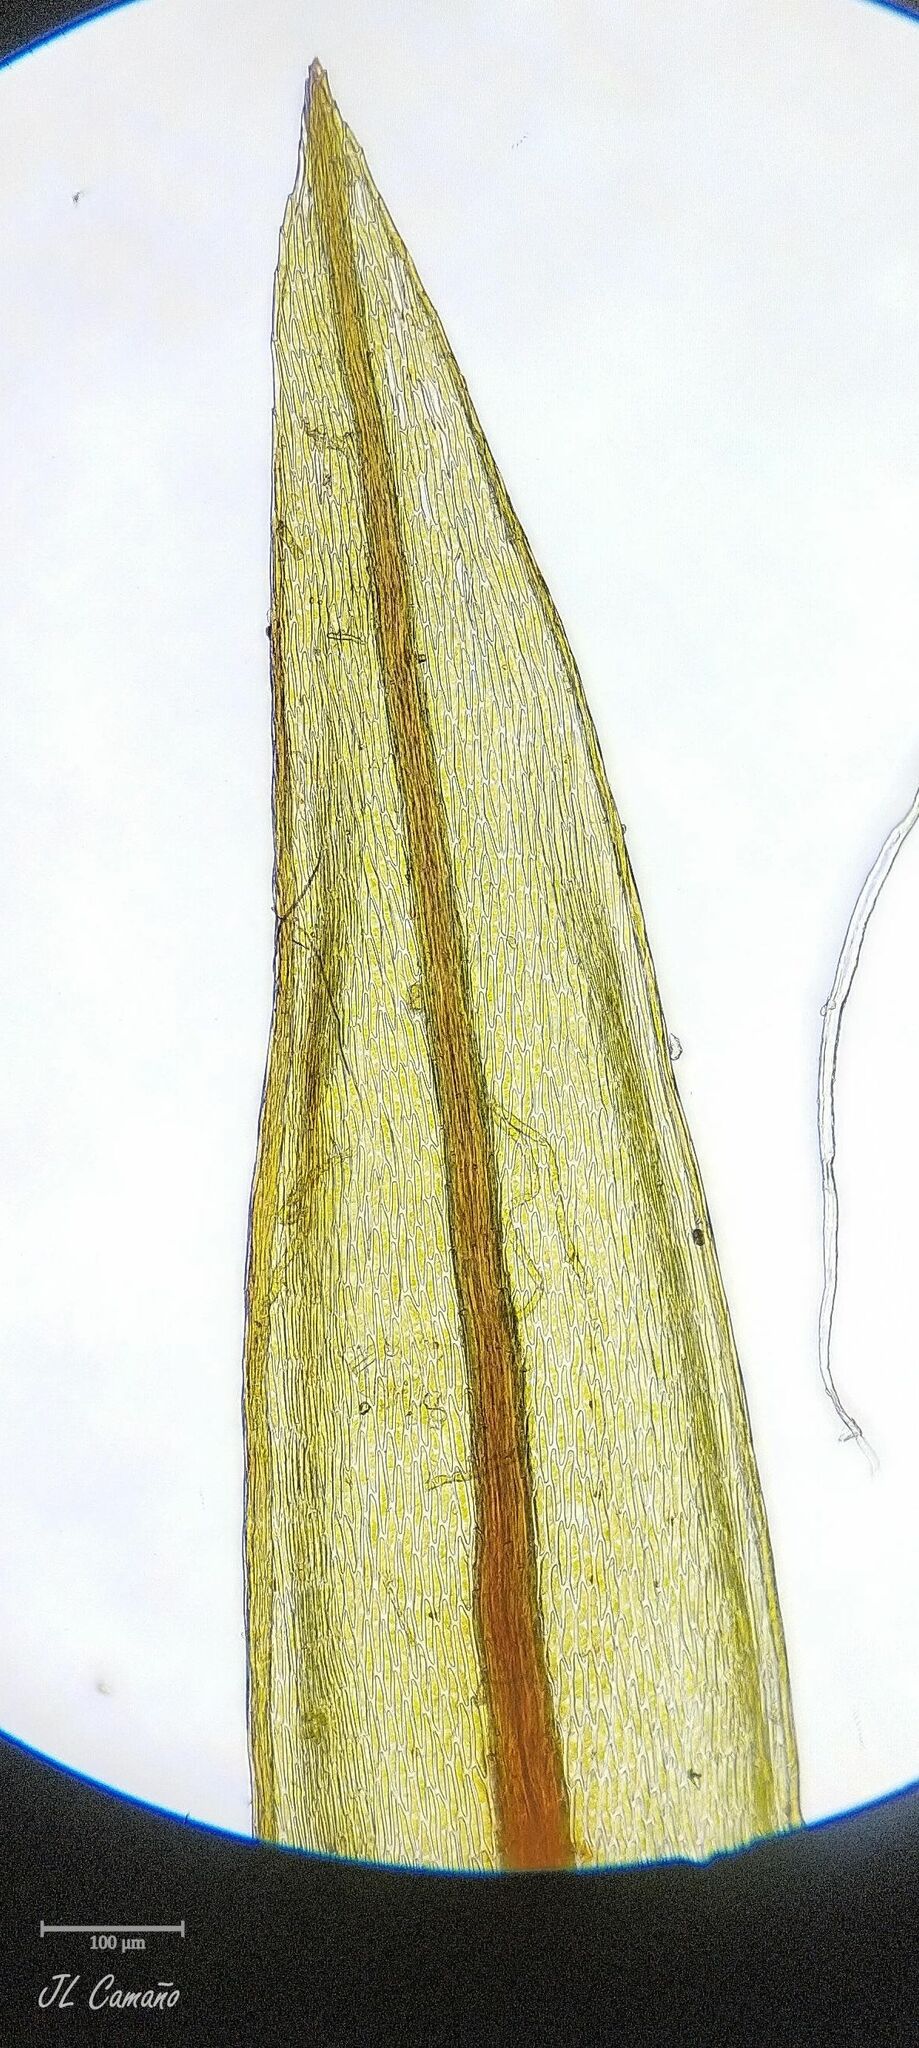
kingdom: Plantae
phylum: Bryophyta
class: Bryopsida
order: Bryales
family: Bryaceae
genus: Imbribryum
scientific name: Imbribryum alpinum
